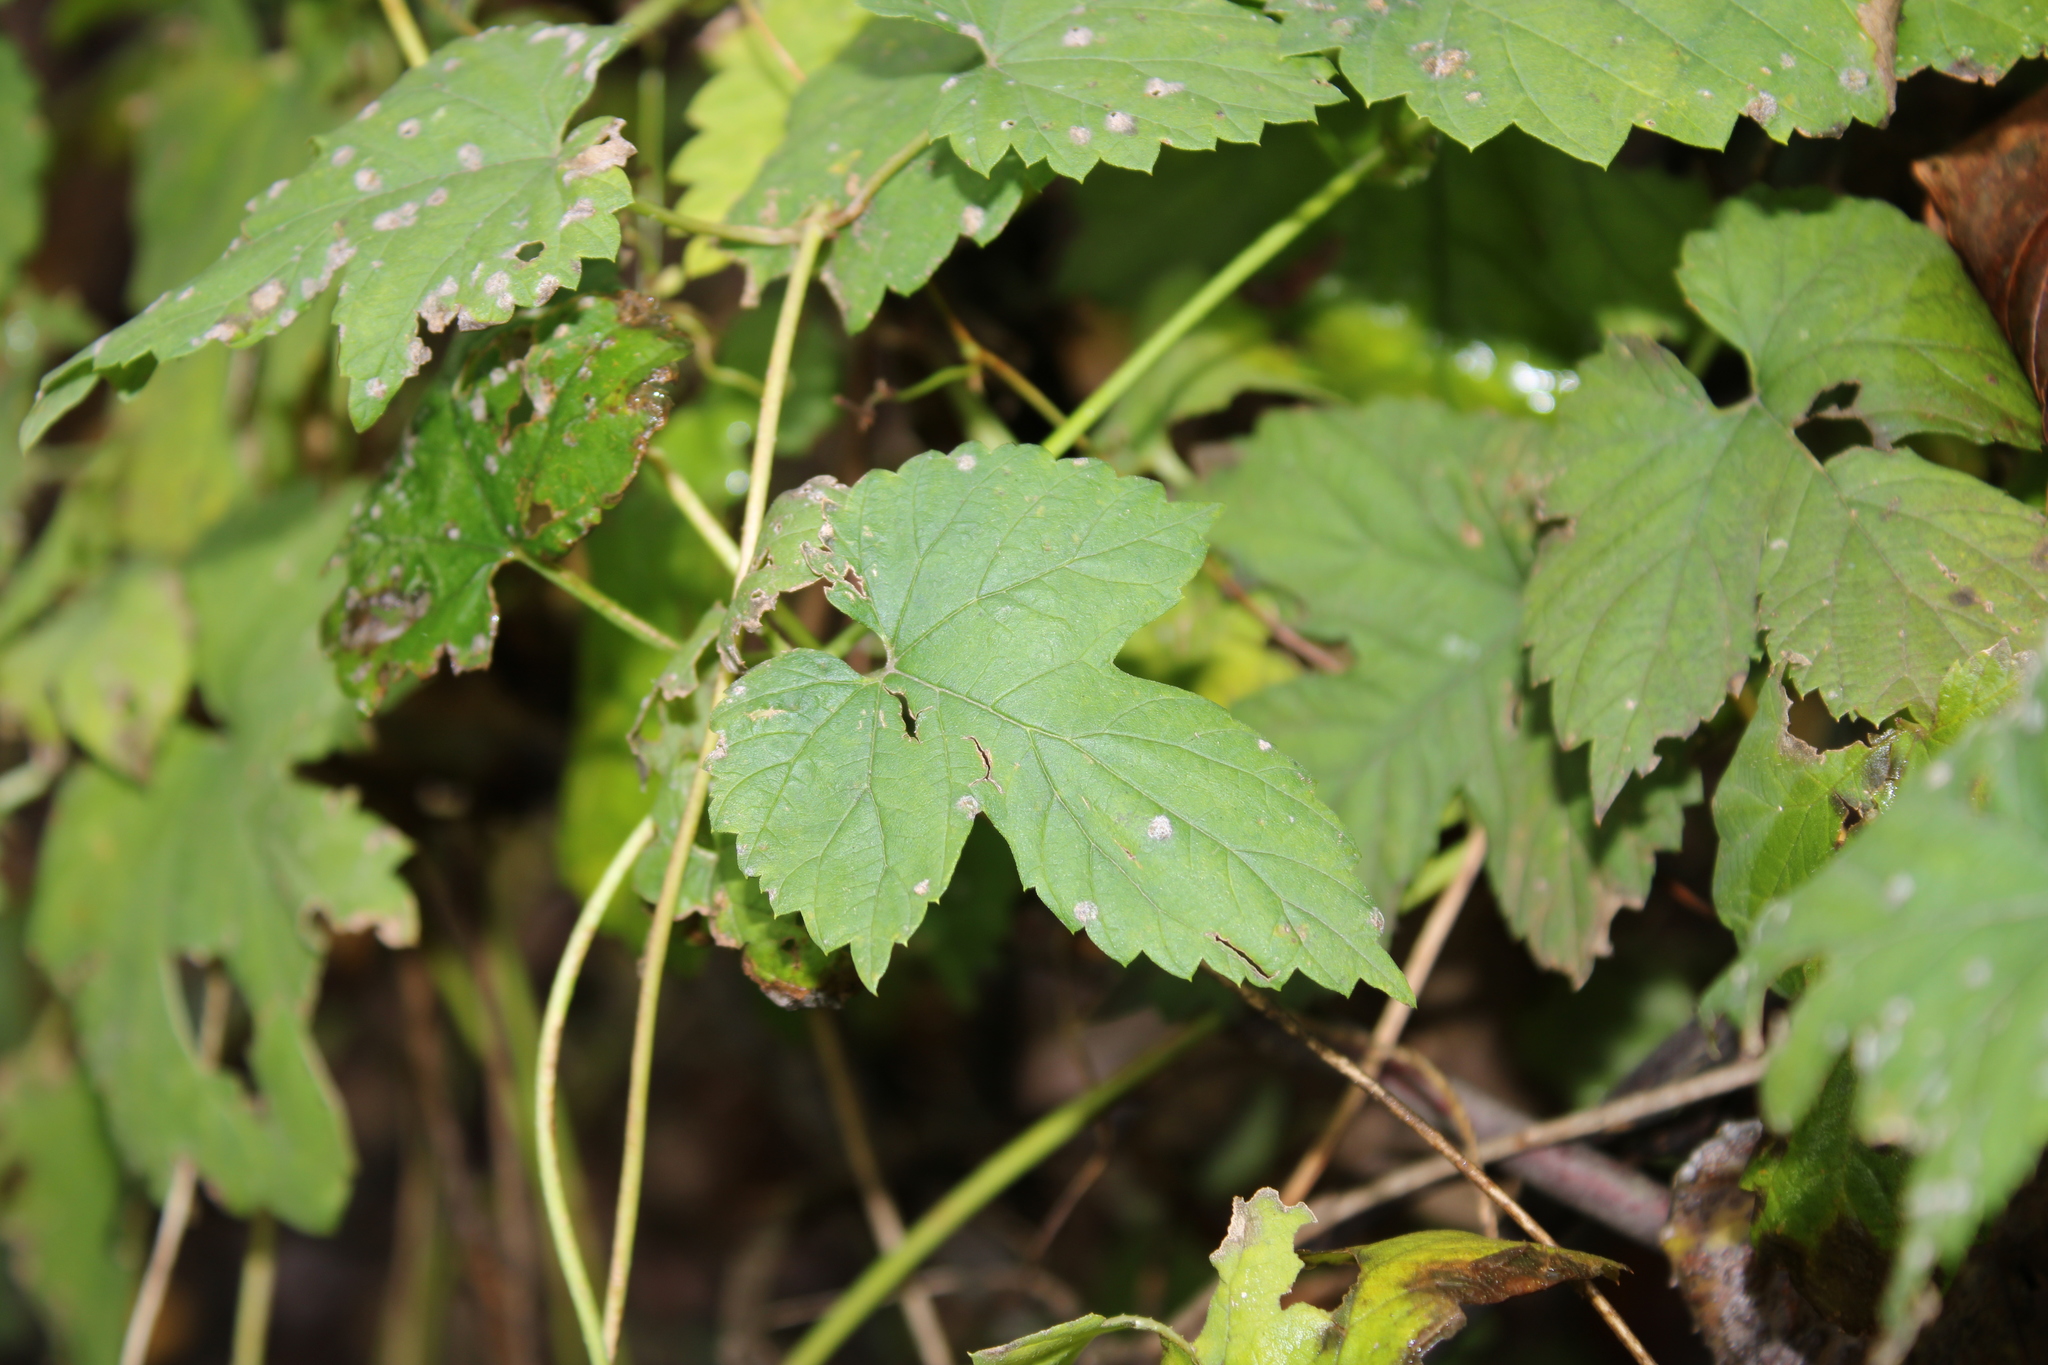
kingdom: Plantae
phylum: Tracheophyta
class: Magnoliopsida
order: Rosales
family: Cannabaceae
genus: Humulus
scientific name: Humulus lupulus
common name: Hop
